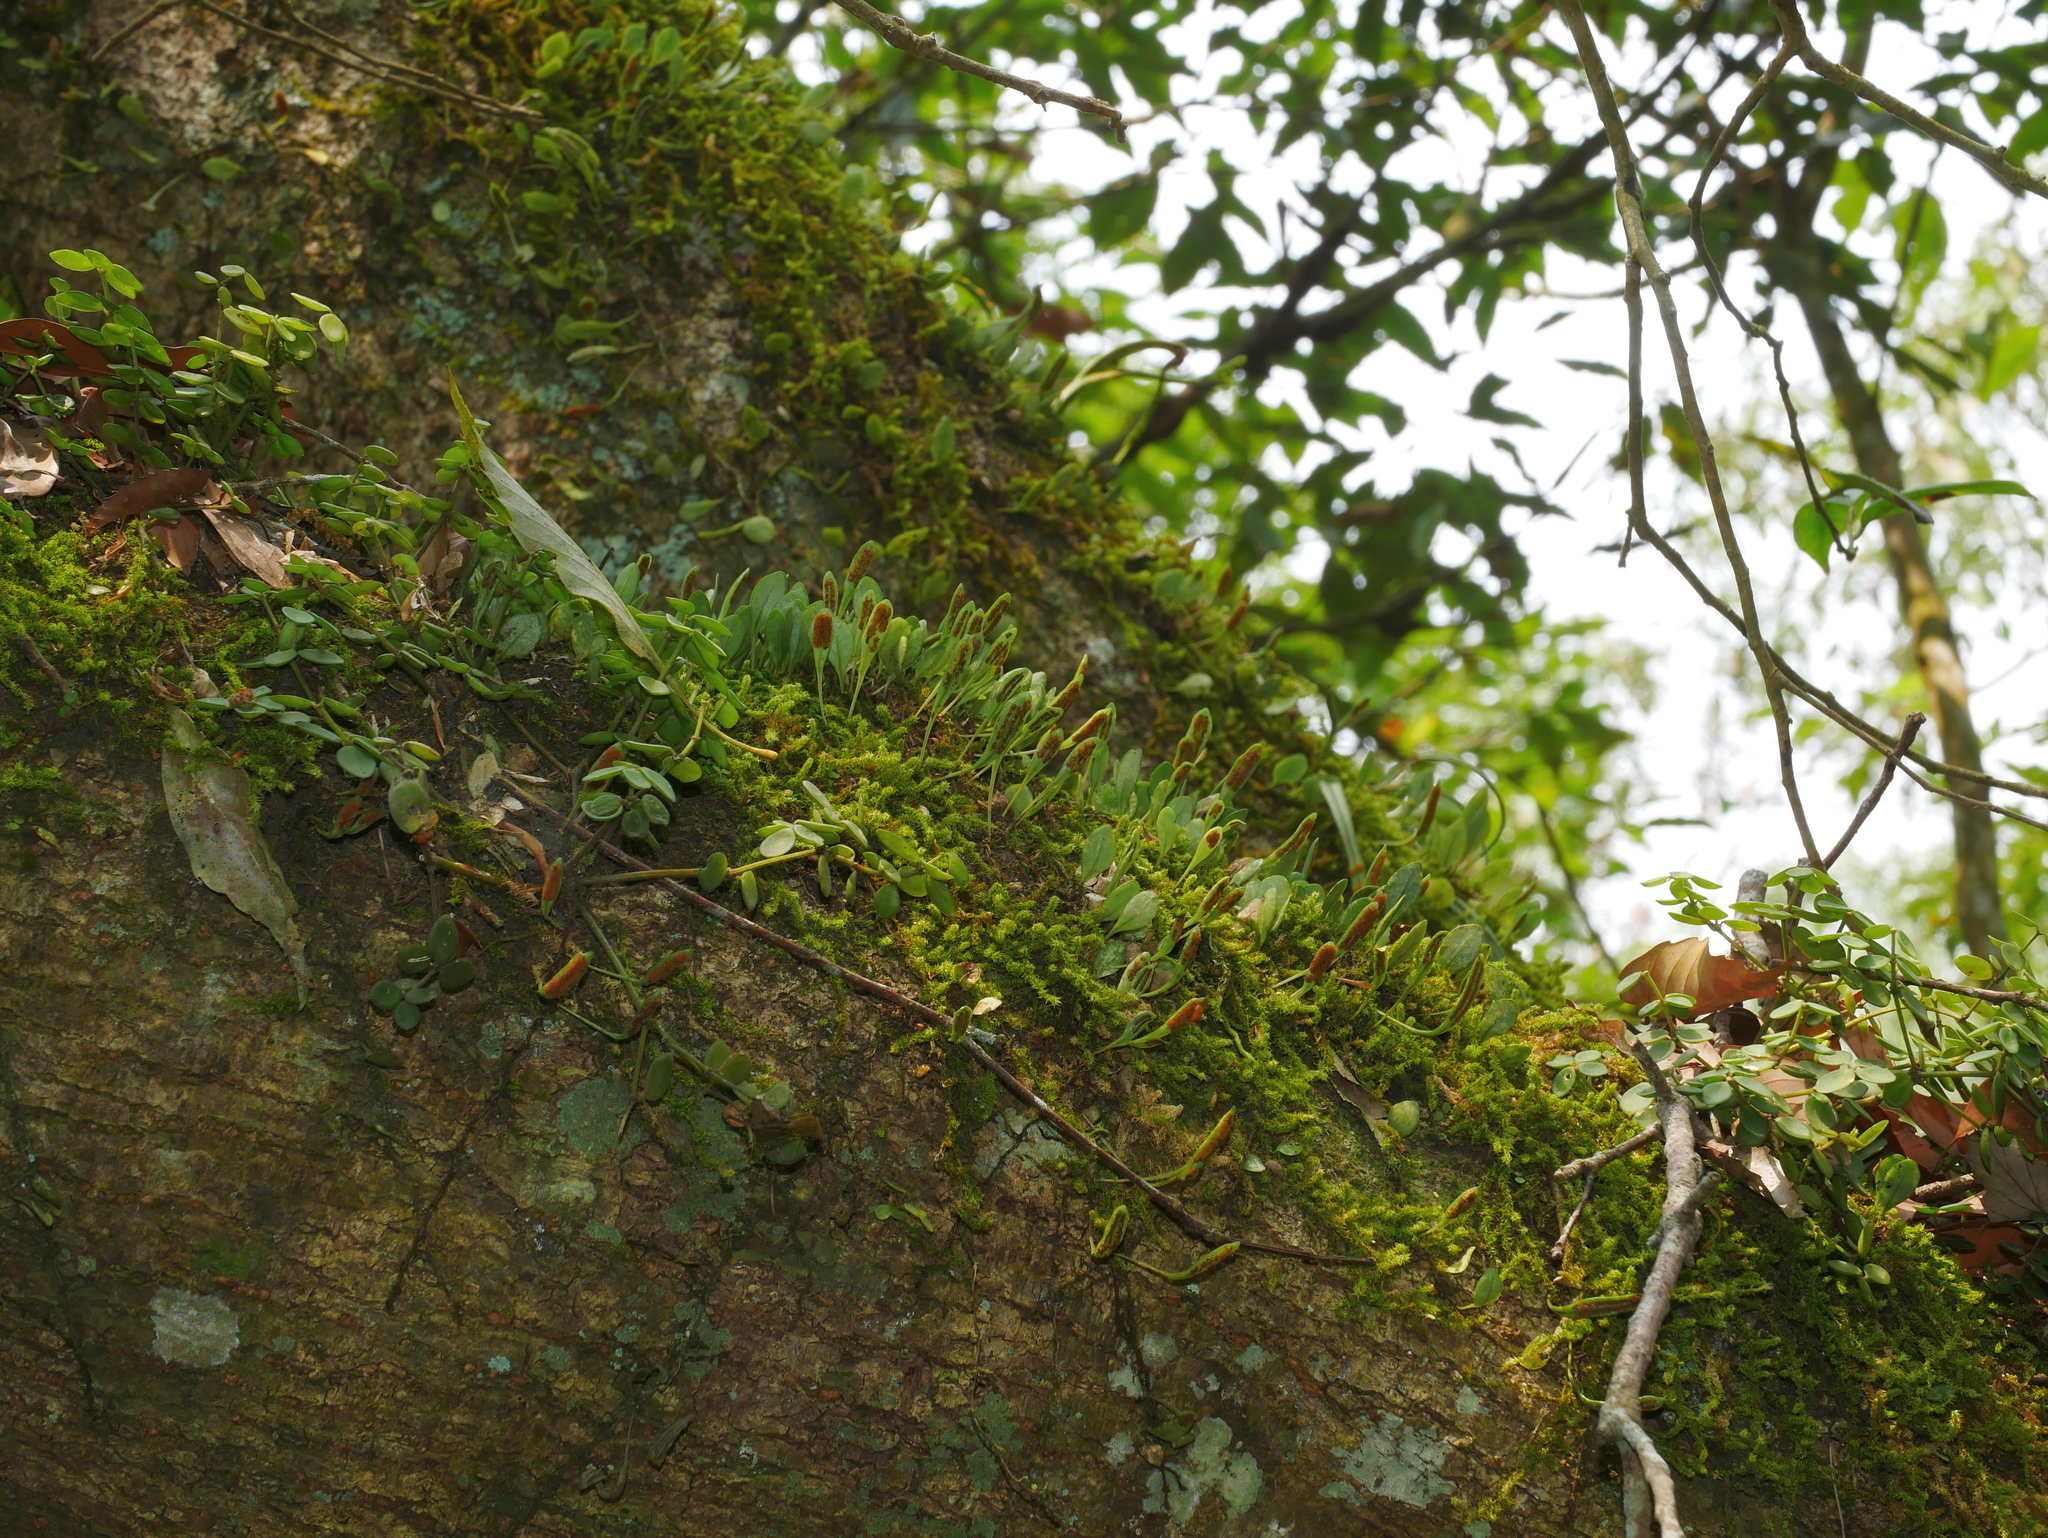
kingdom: Plantae
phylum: Tracheophyta
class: Polypodiopsida
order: Polypodiales
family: Polypodiaceae
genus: Lepisorus
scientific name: Lepisorus microphyllus
